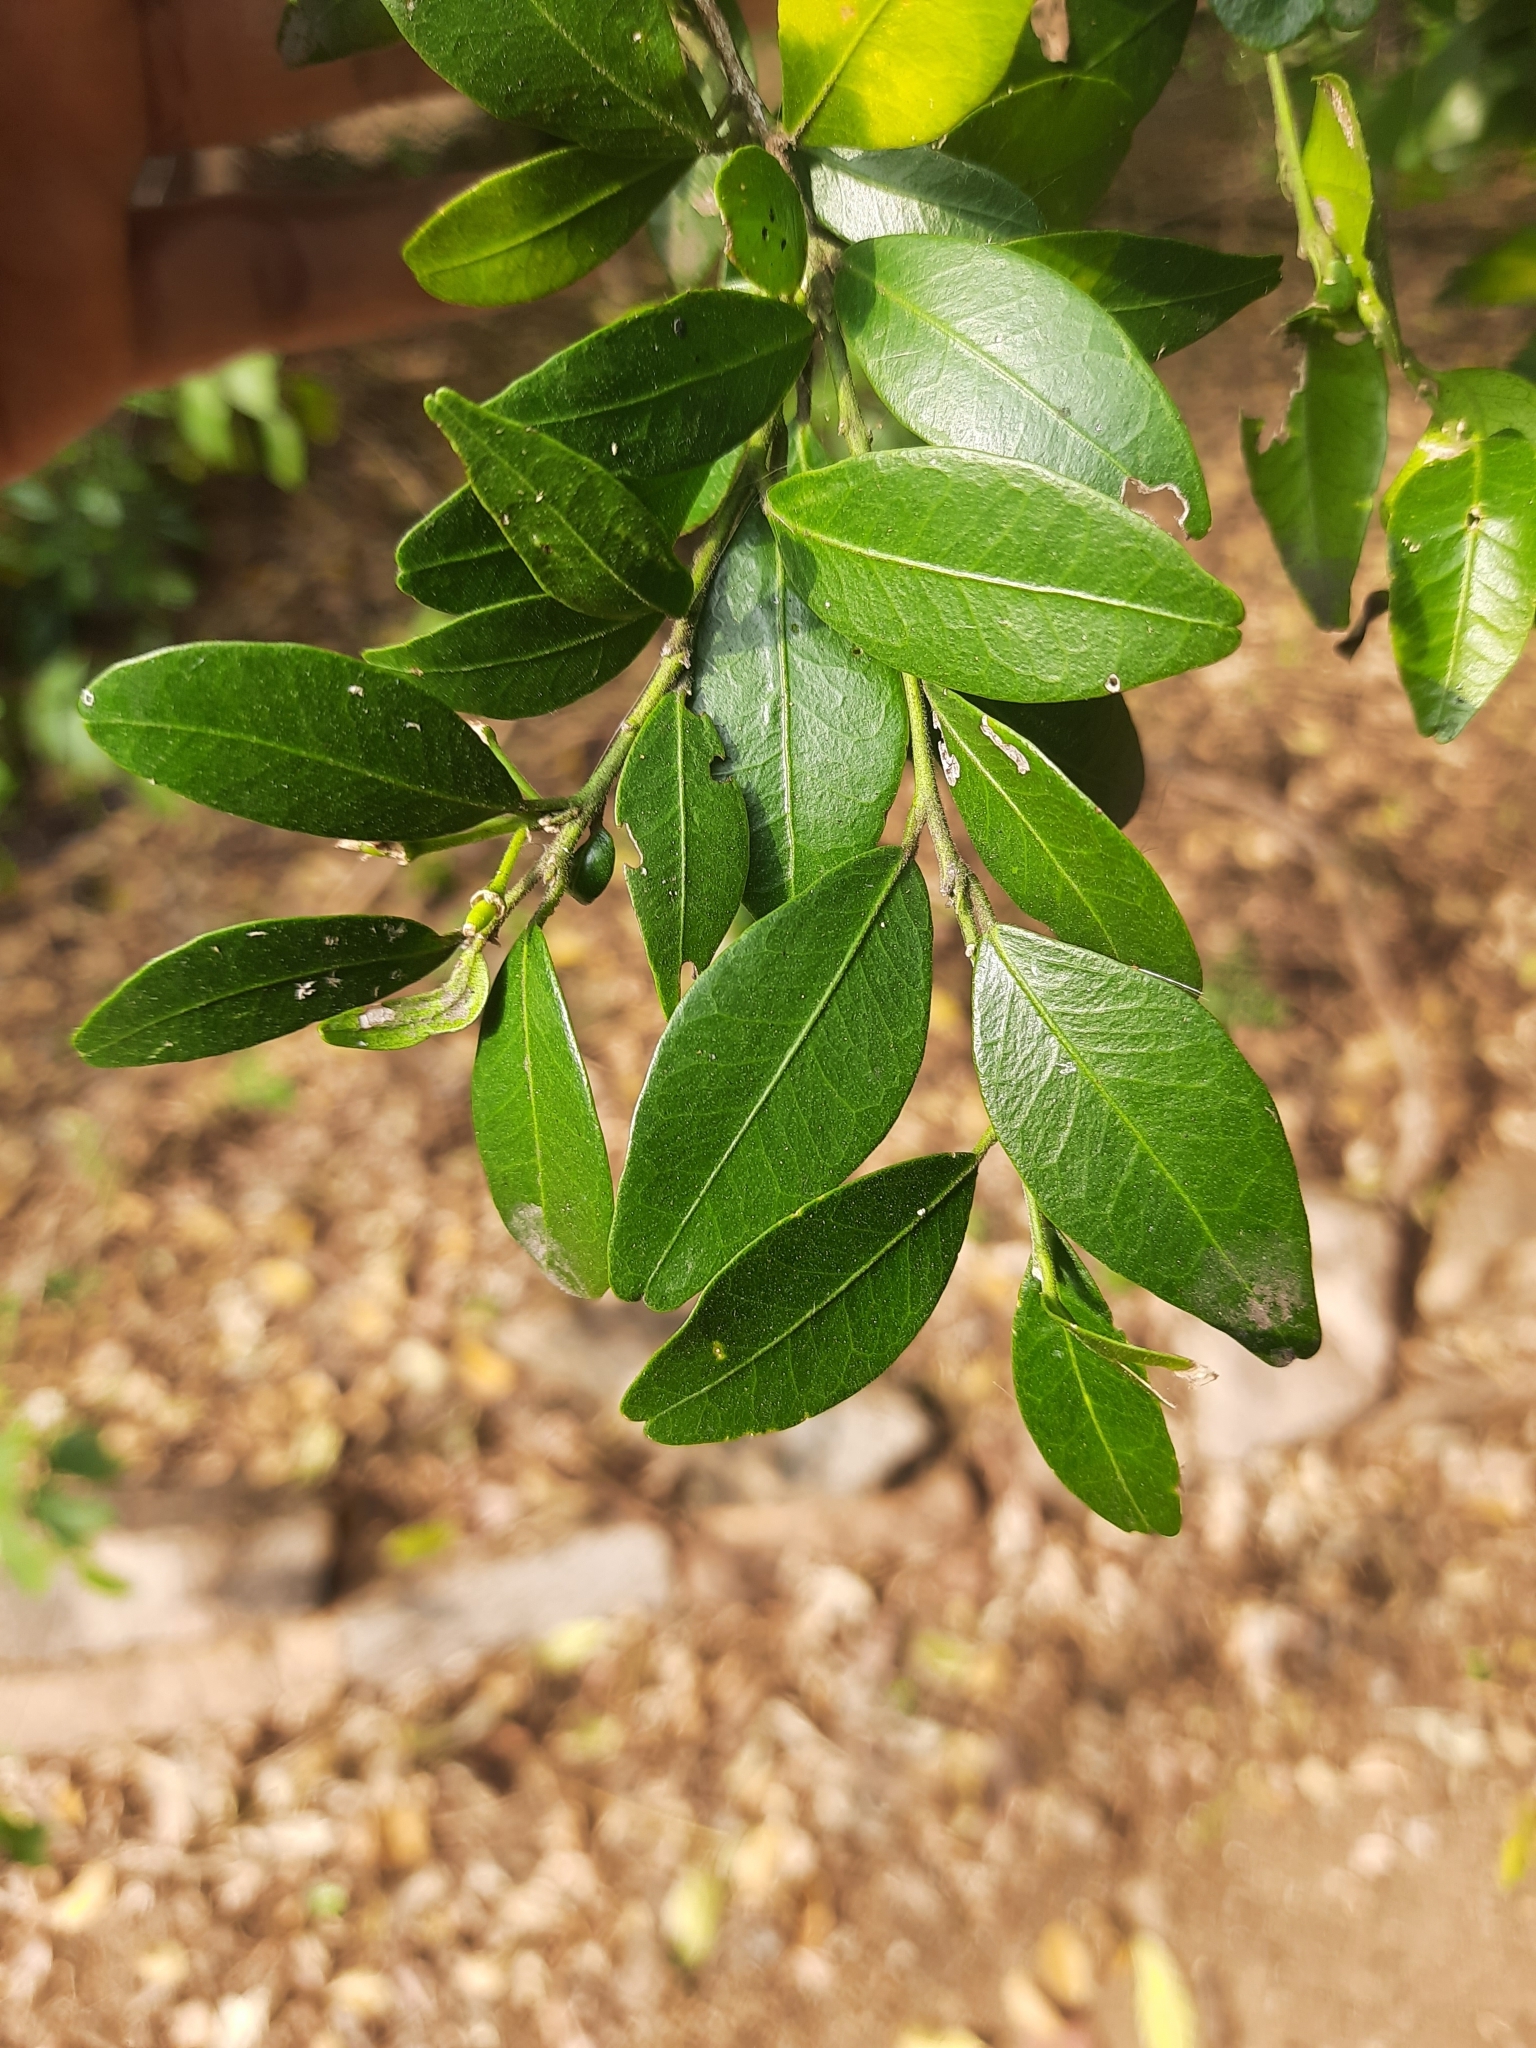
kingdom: Plantae
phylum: Tracheophyta
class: Magnoliopsida
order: Sapindales
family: Rutaceae
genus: Atalantia
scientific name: Atalantia monophylla
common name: Indian-atalantia
